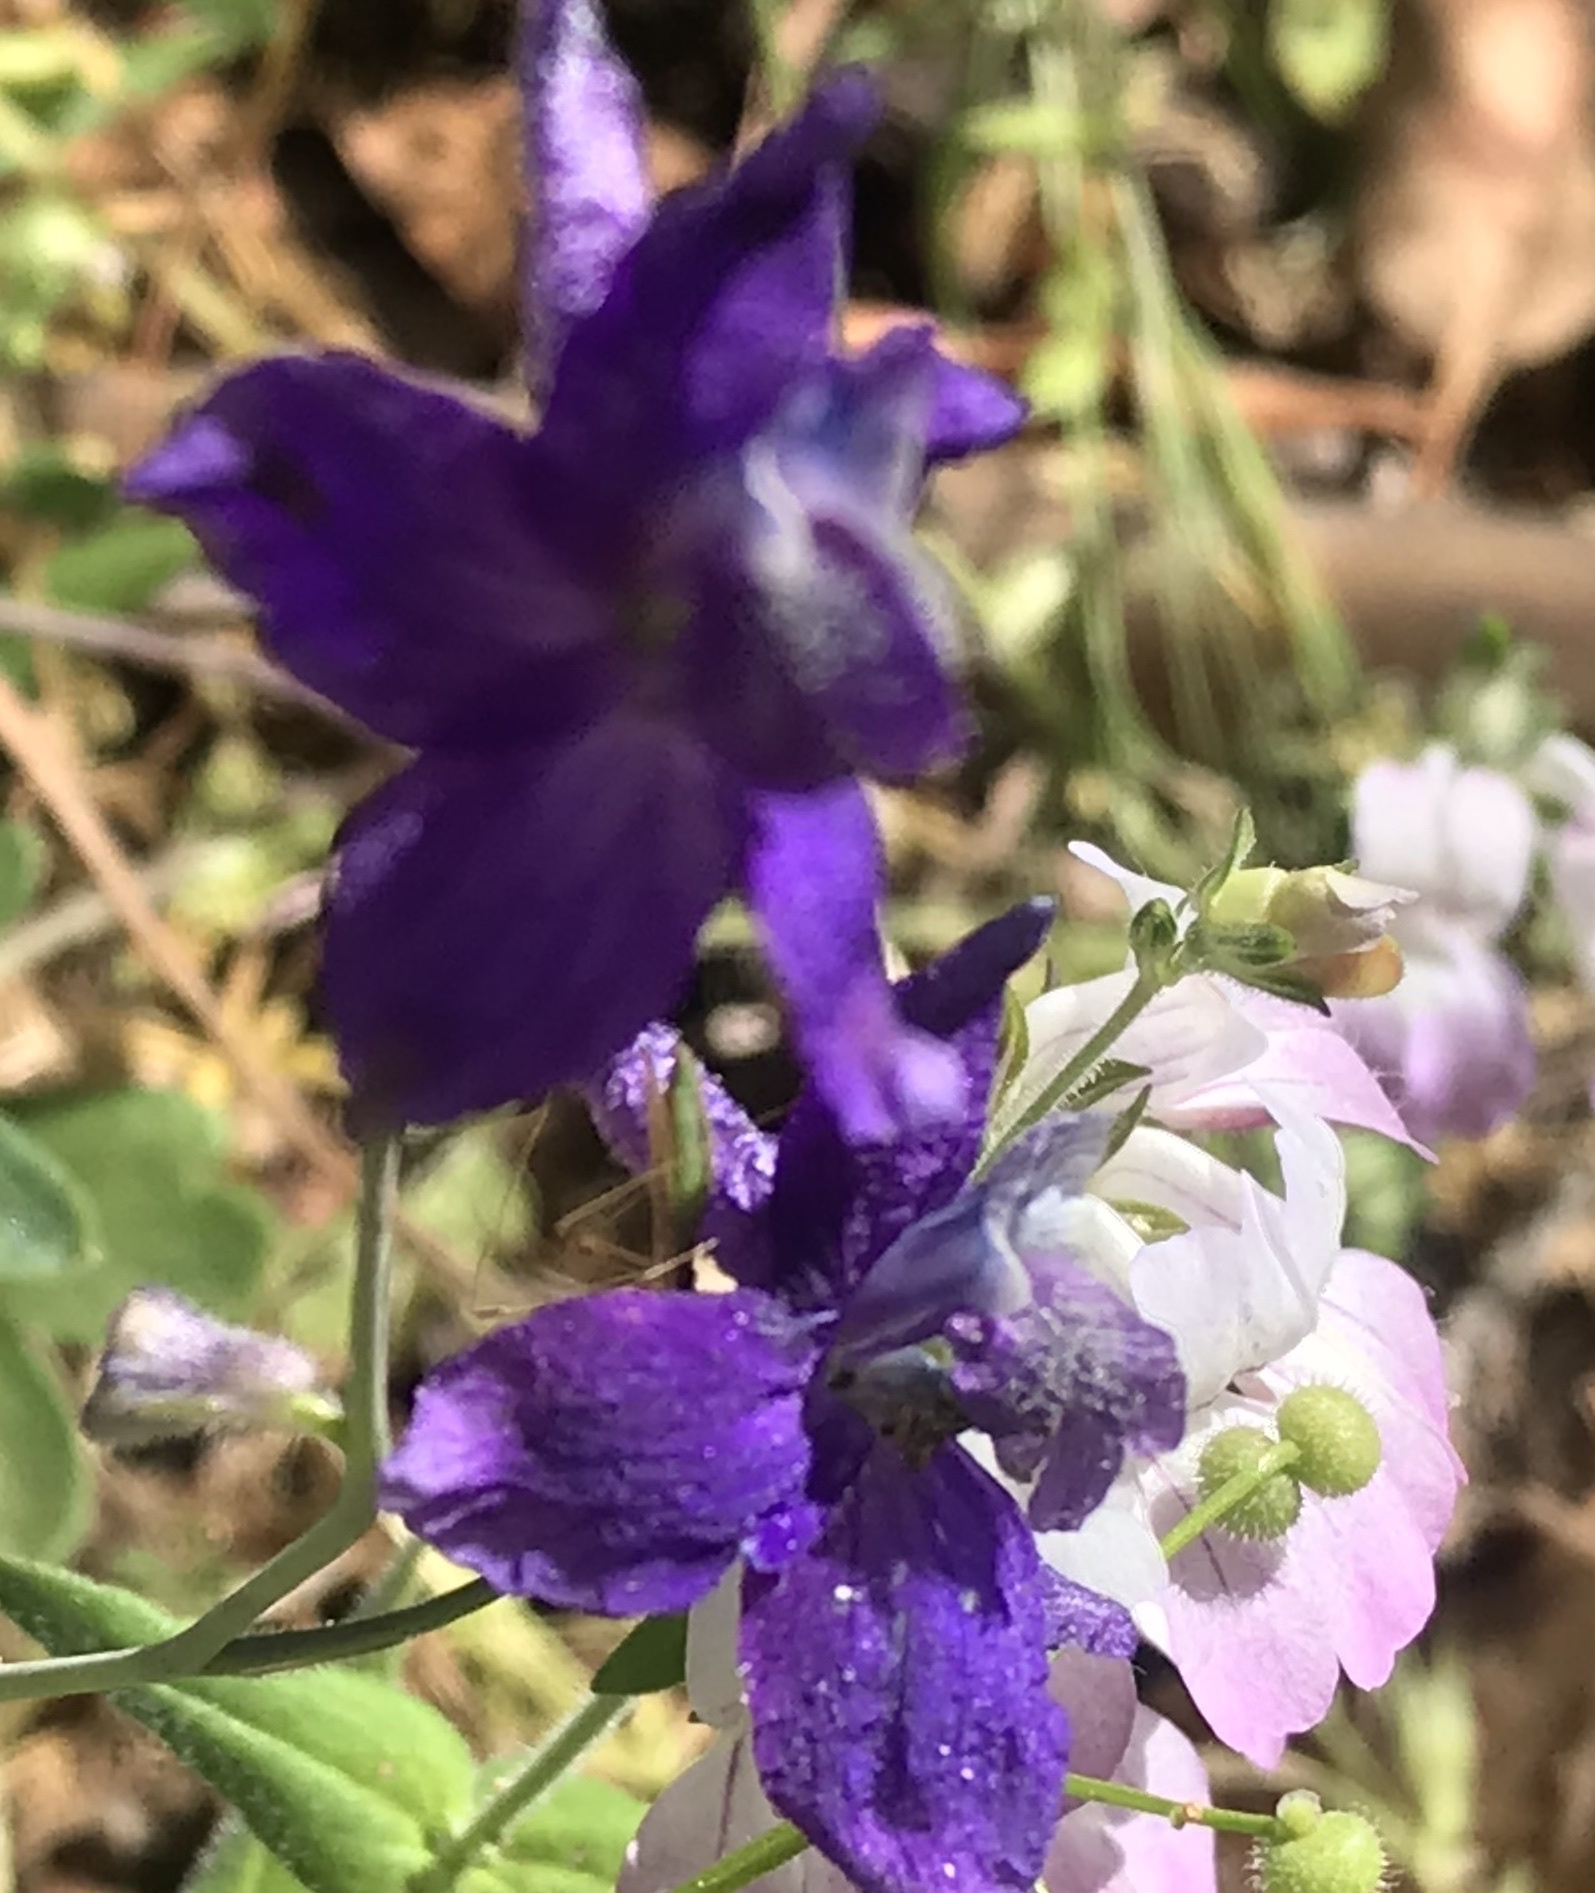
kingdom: Plantae
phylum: Tracheophyta
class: Magnoliopsida
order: Ranunculales
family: Ranunculaceae
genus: Delphinium
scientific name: Delphinium patens
